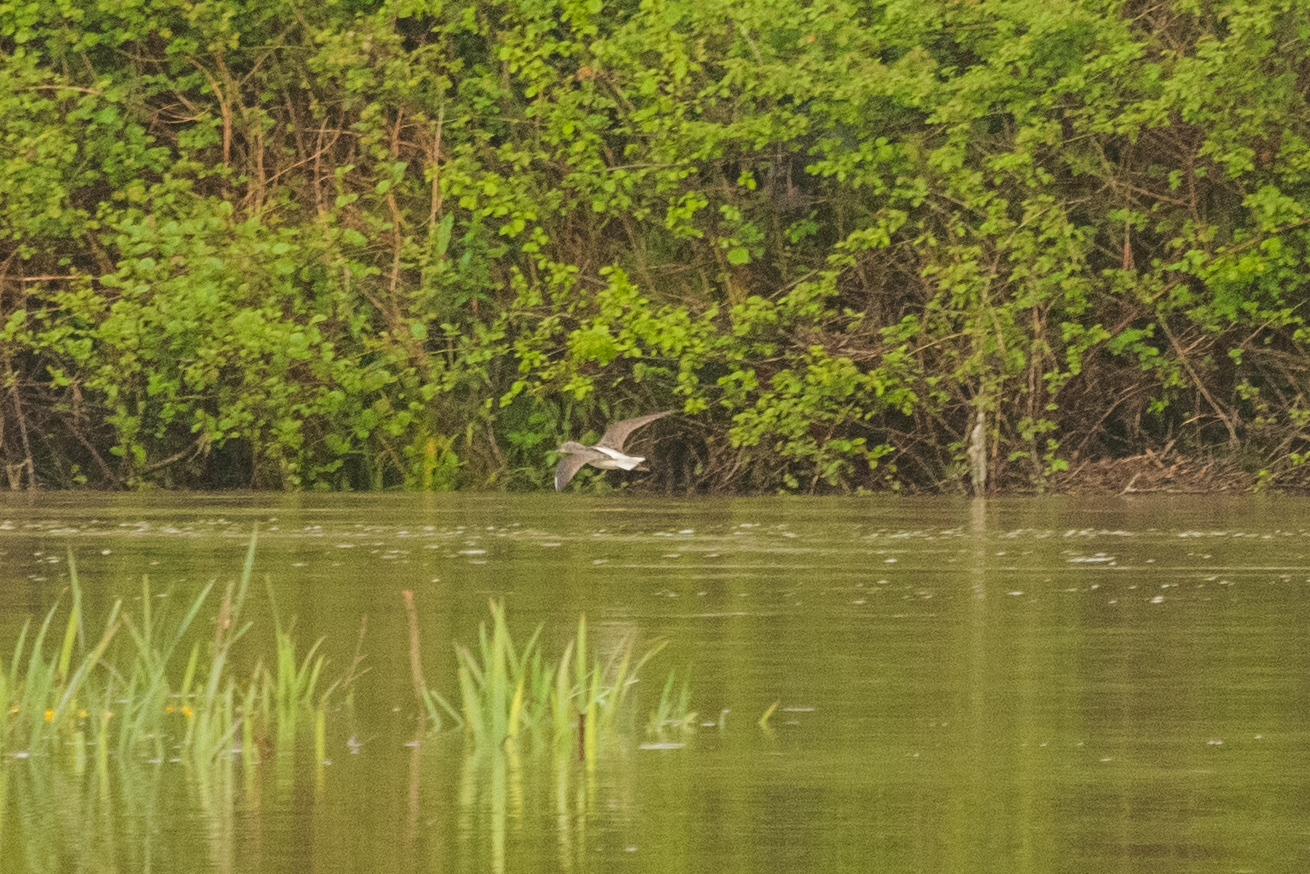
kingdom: Animalia
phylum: Chordata
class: Aves
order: Charadriiformes
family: Scolopacidae
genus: Tringa
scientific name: Tringa nebularia
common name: Common greenshank
